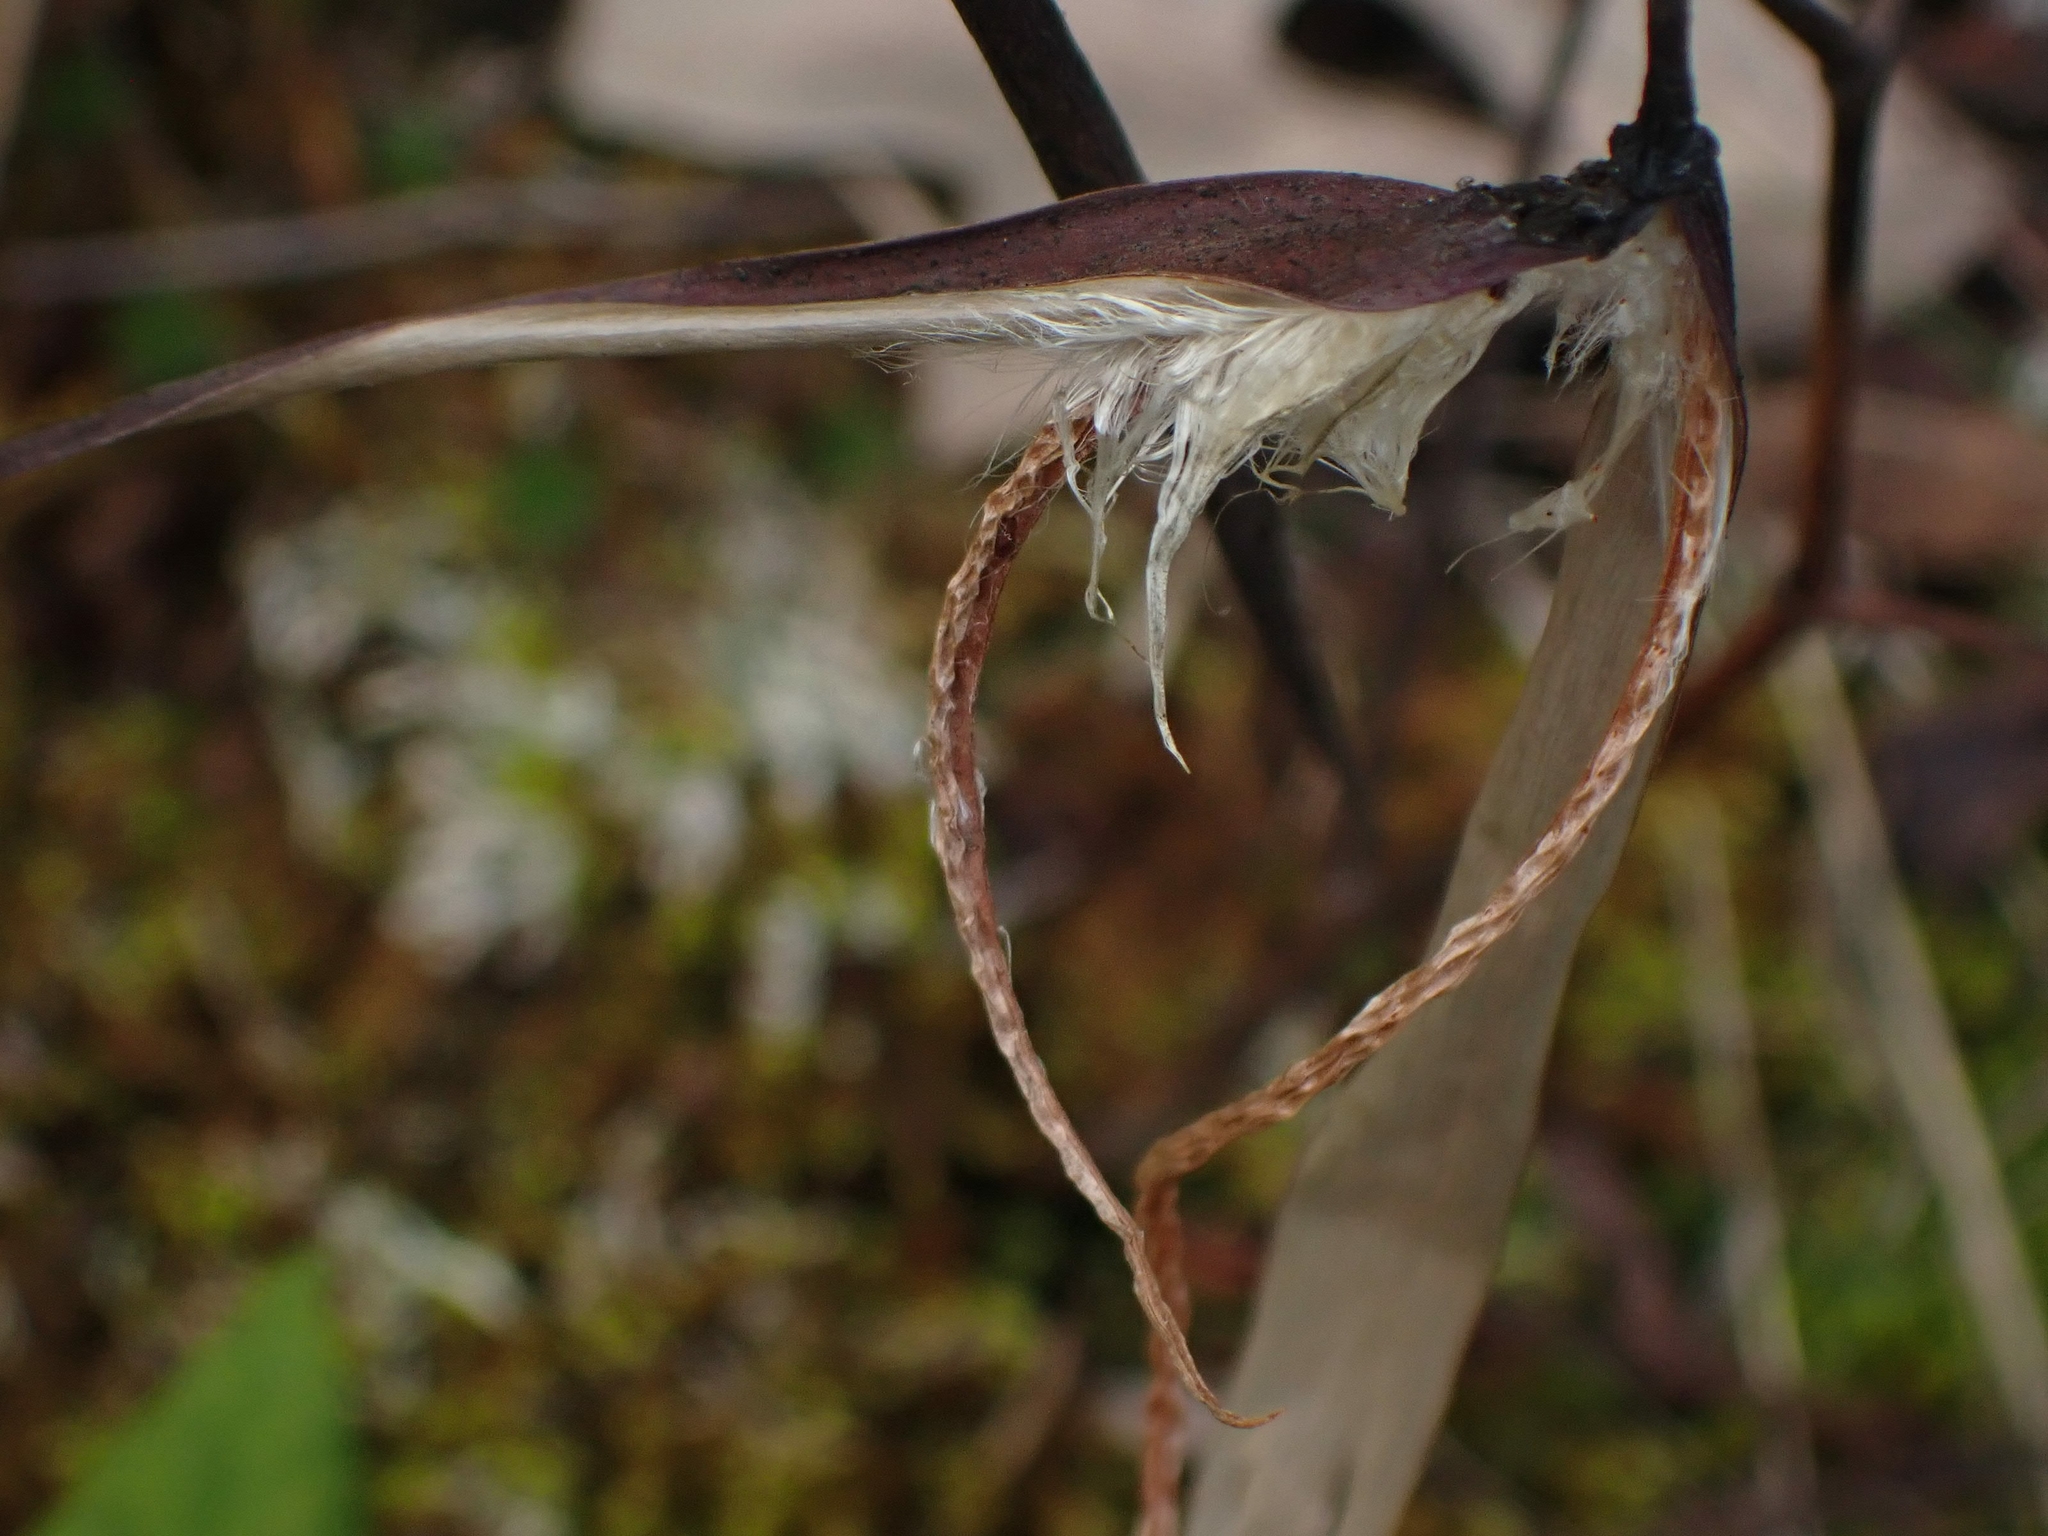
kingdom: Plantae
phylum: Tracheophyta
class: Magnoliopsida
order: Gentianales
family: Apocynaceae
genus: Apocynum
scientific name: Apocynum androsaemifolium
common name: Spreading dogbane
